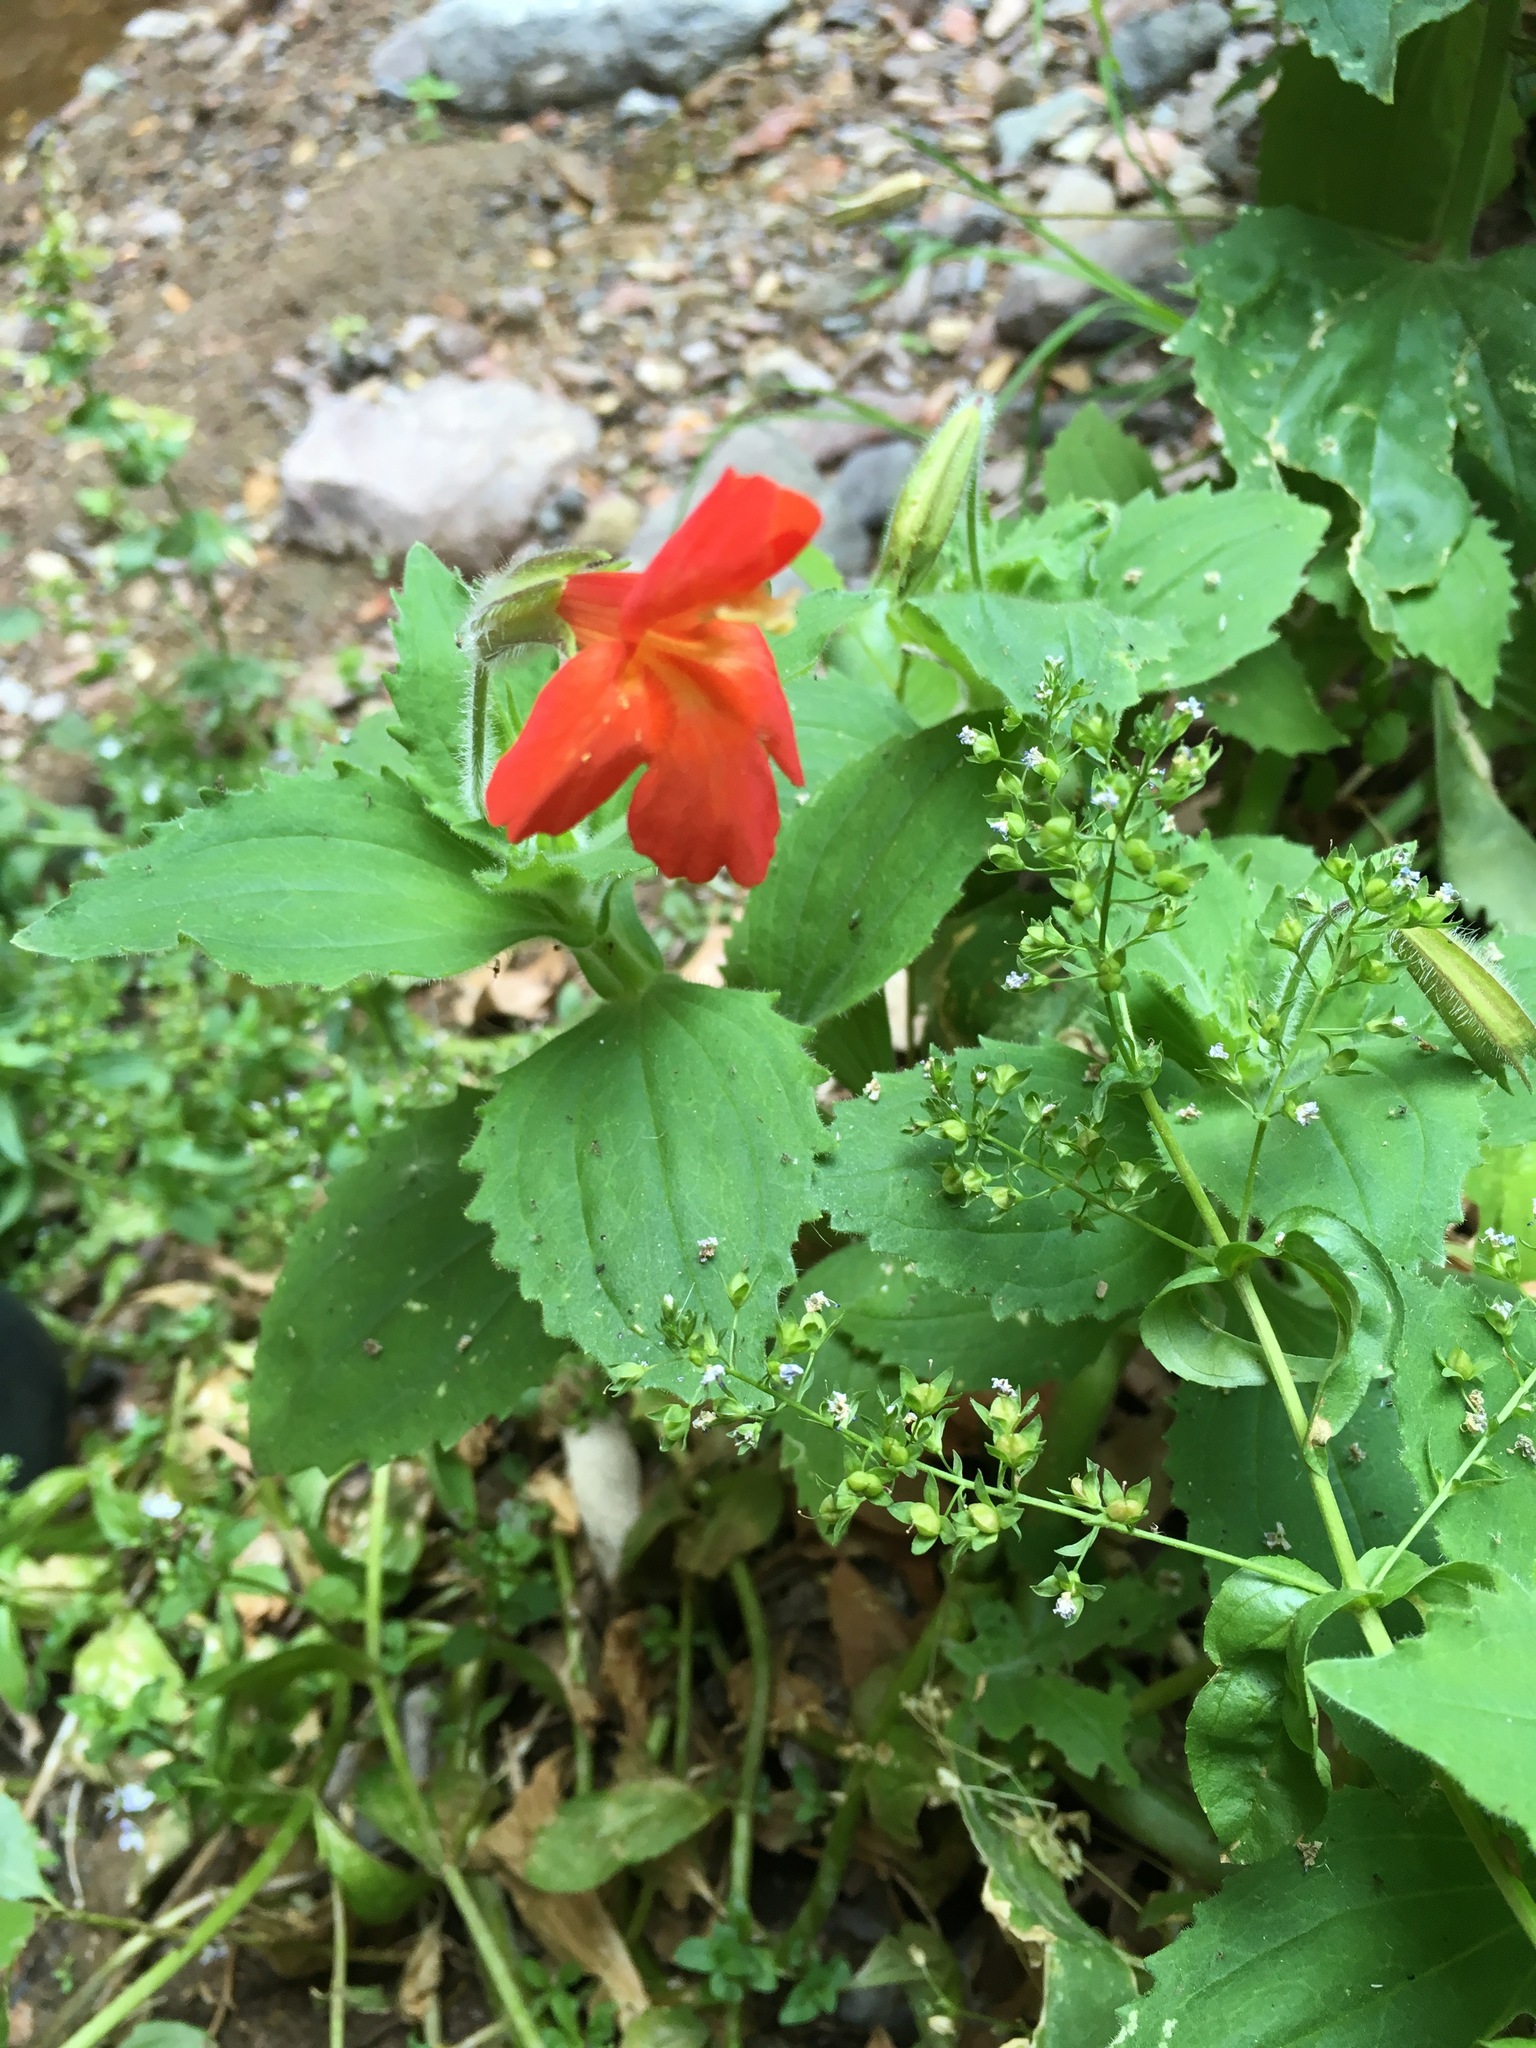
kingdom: Plantae
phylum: Tracheophyta
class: Magnoliopsida
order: Lamiales
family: Phrymaceae
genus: Erythranthe
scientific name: Erythranthe verbenacea
